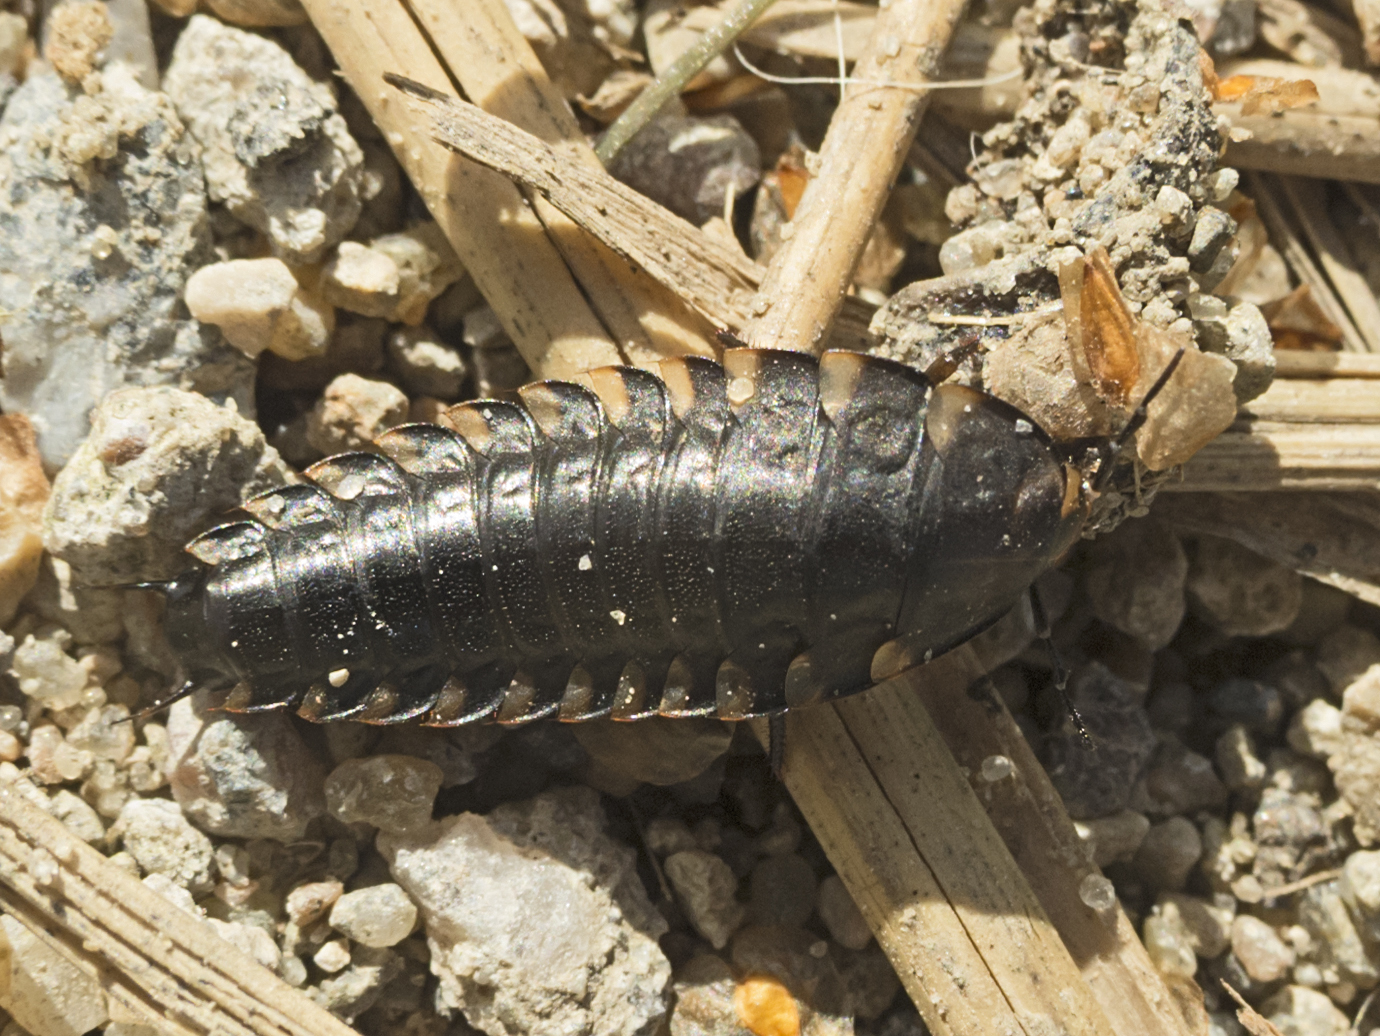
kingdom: Animalia
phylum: Arthropoda
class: Insecta
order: Coleoptera
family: Staphylinidae
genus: Silpha
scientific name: Silpha tristis
